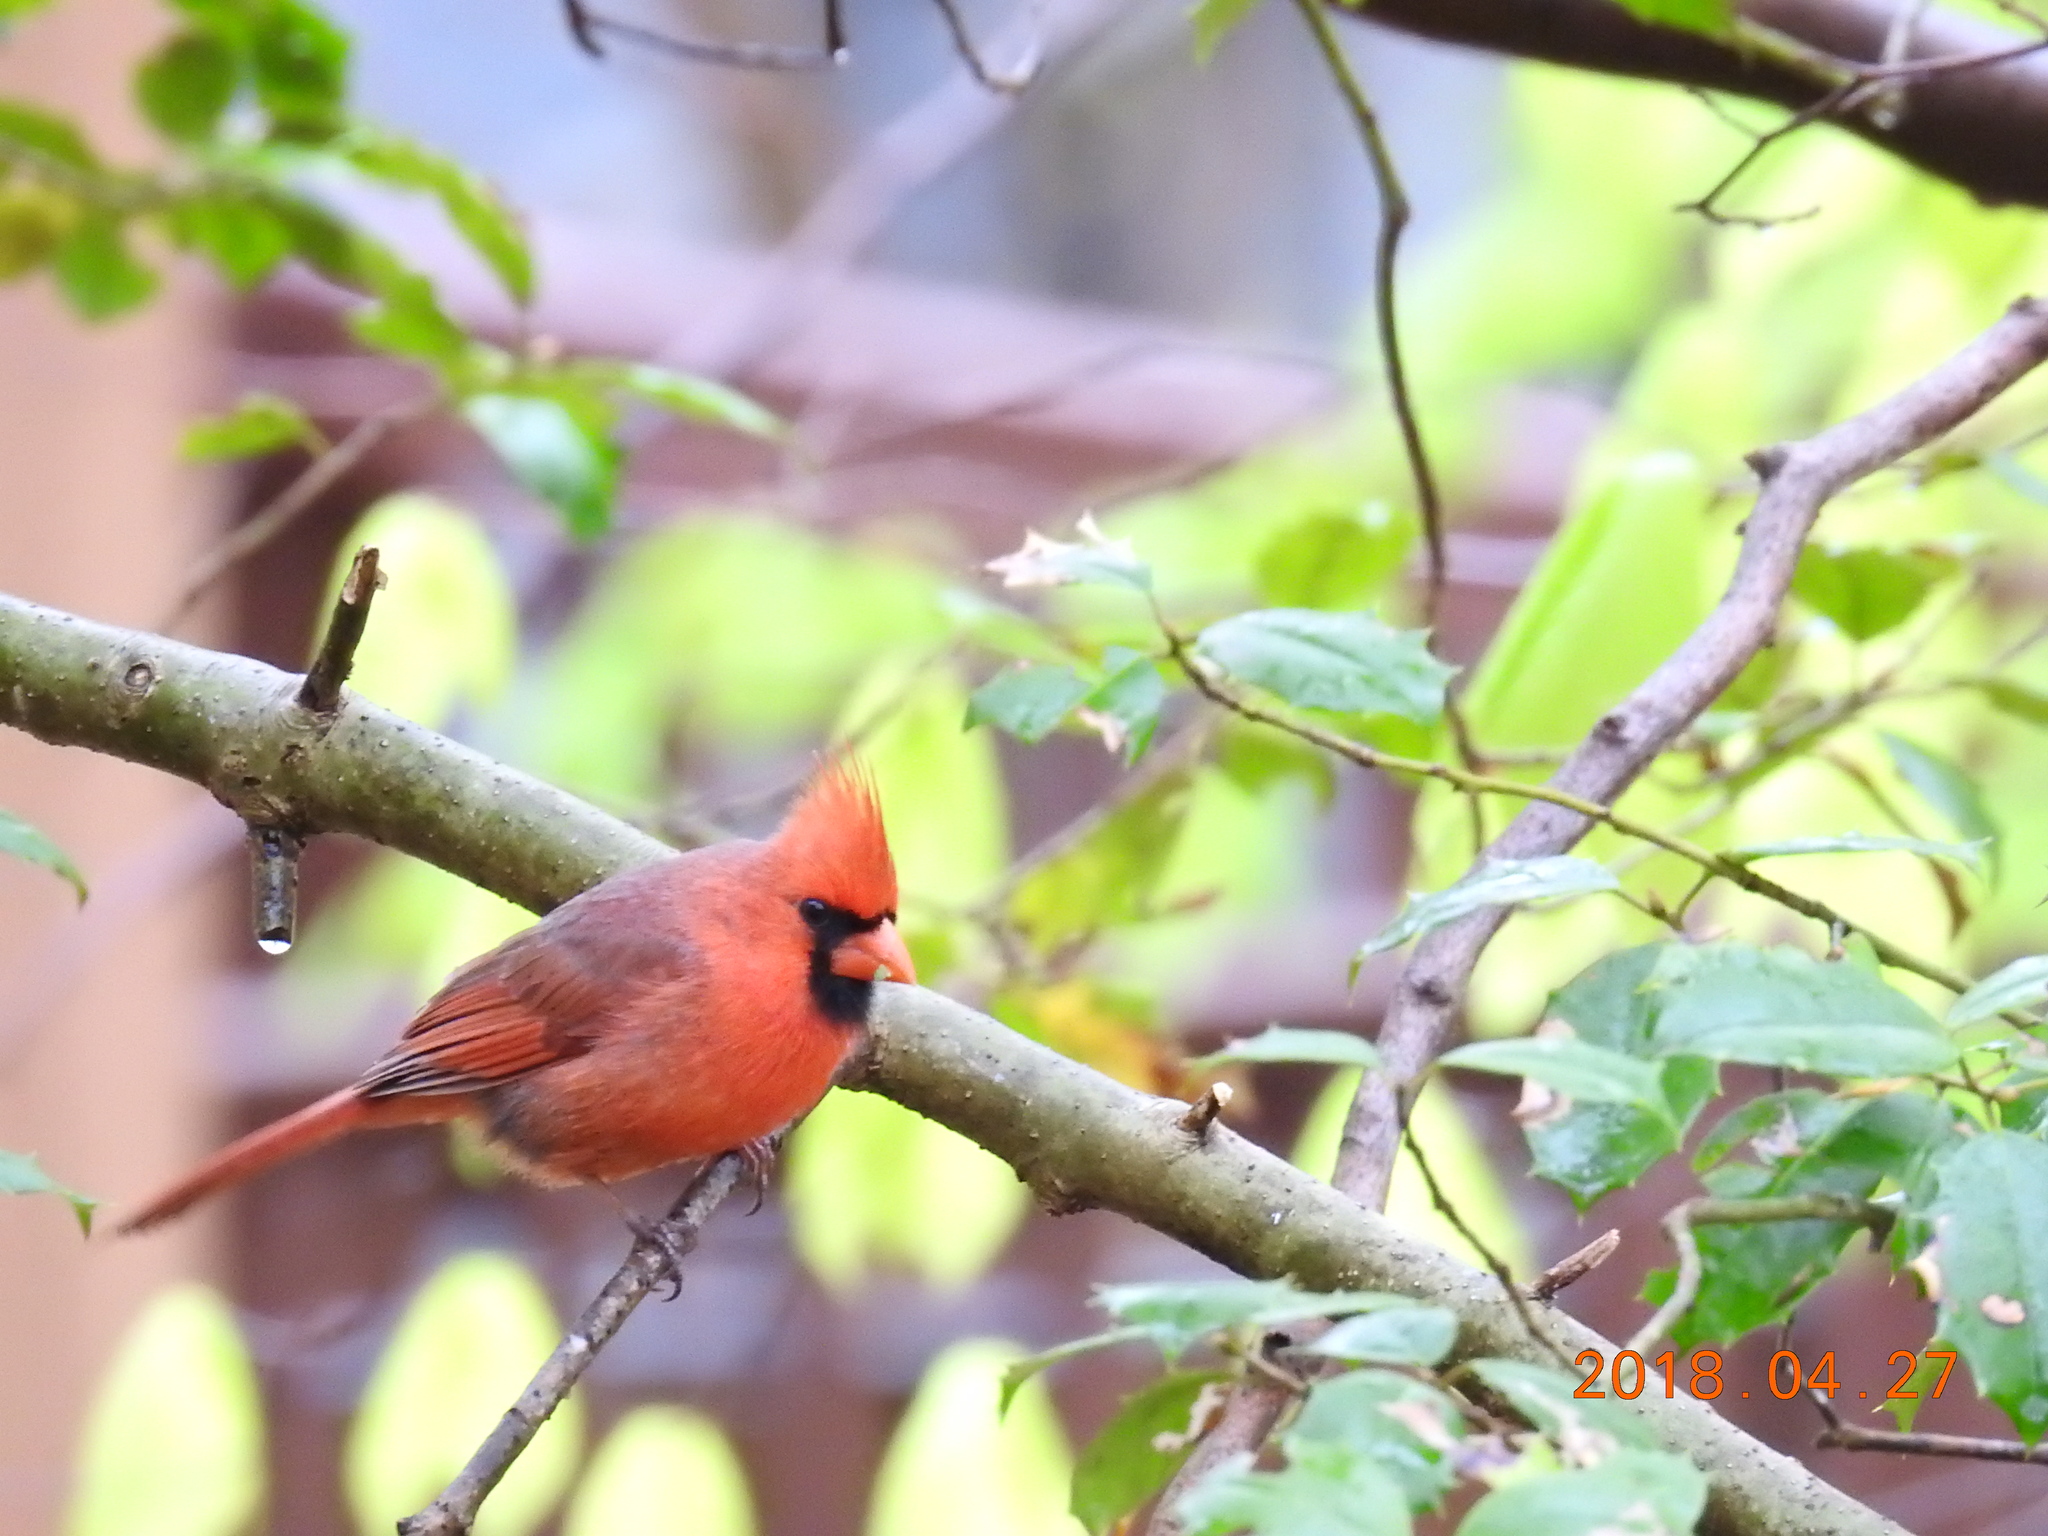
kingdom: Animalia
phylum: Chordata
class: Aves
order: Passeriformes
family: Cardinalidae
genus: Cardinalis
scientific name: Cardinalis cardinalis
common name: Northern cardinal
